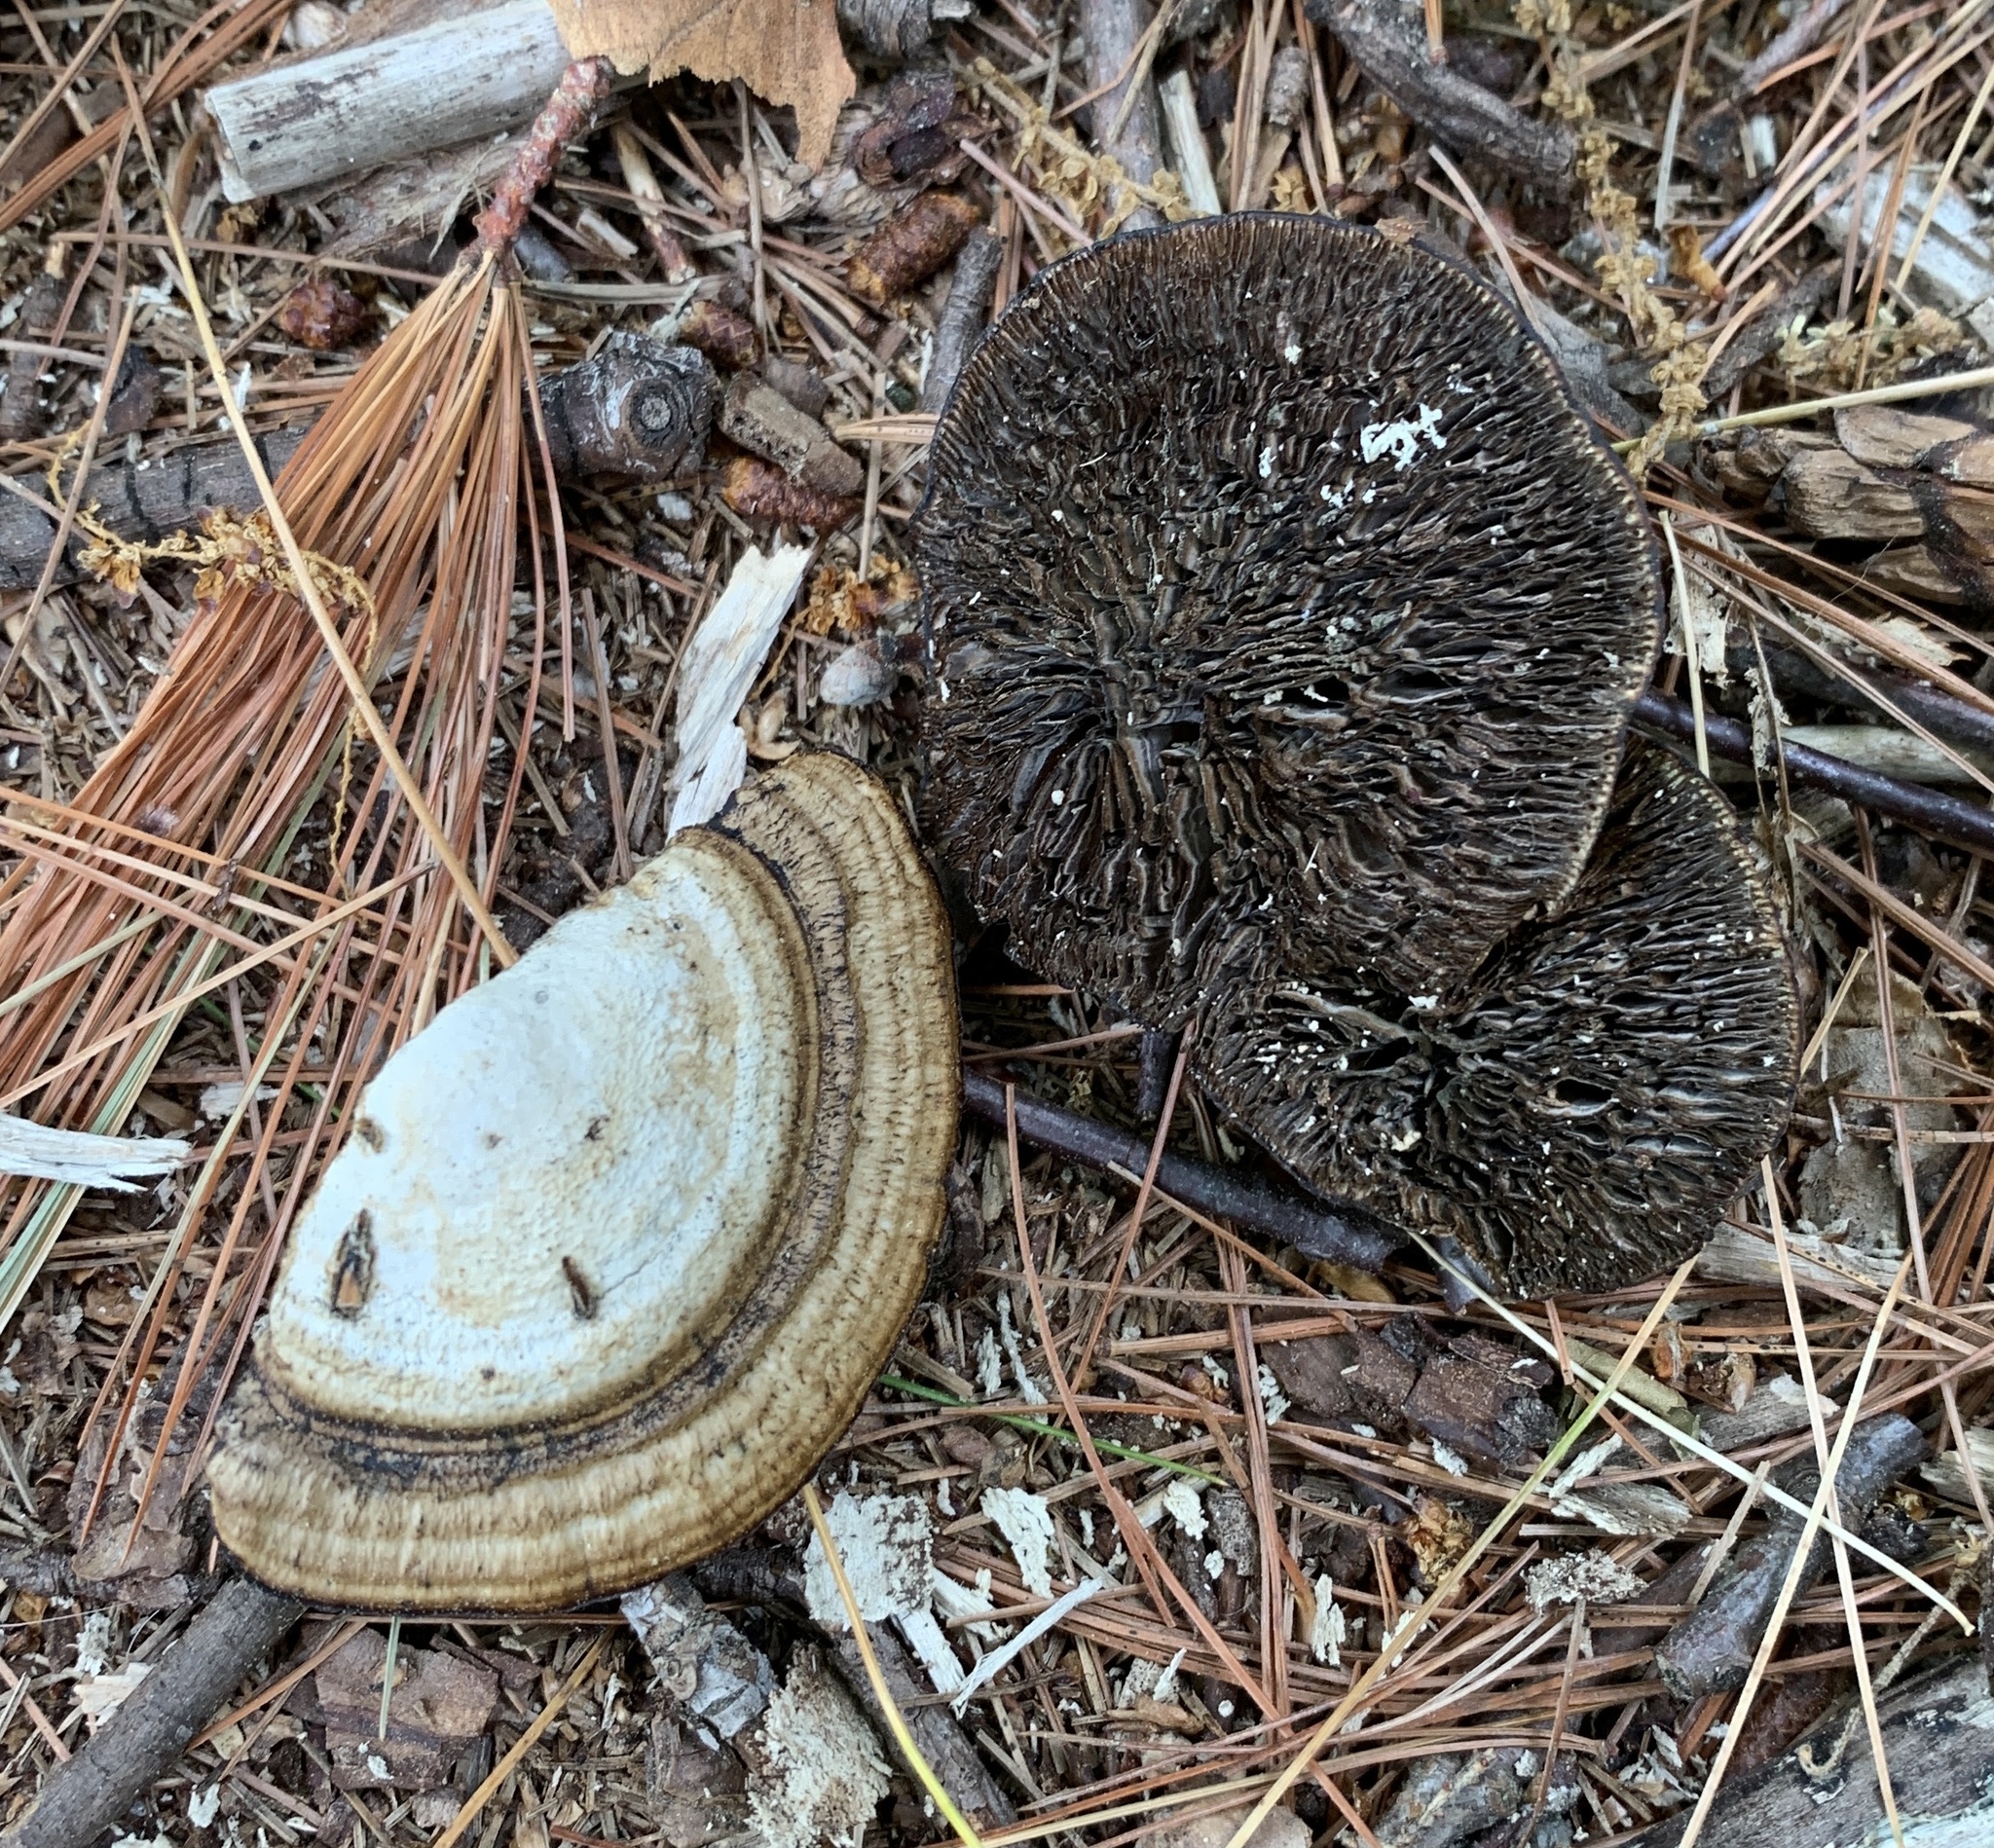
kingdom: Fungi
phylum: Basidiomycota
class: Agaricomycetes
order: Polyporales
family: Polyporaceae
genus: Daedaleopsis
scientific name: Daedaleopsis confragosa
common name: Blushing bracket
